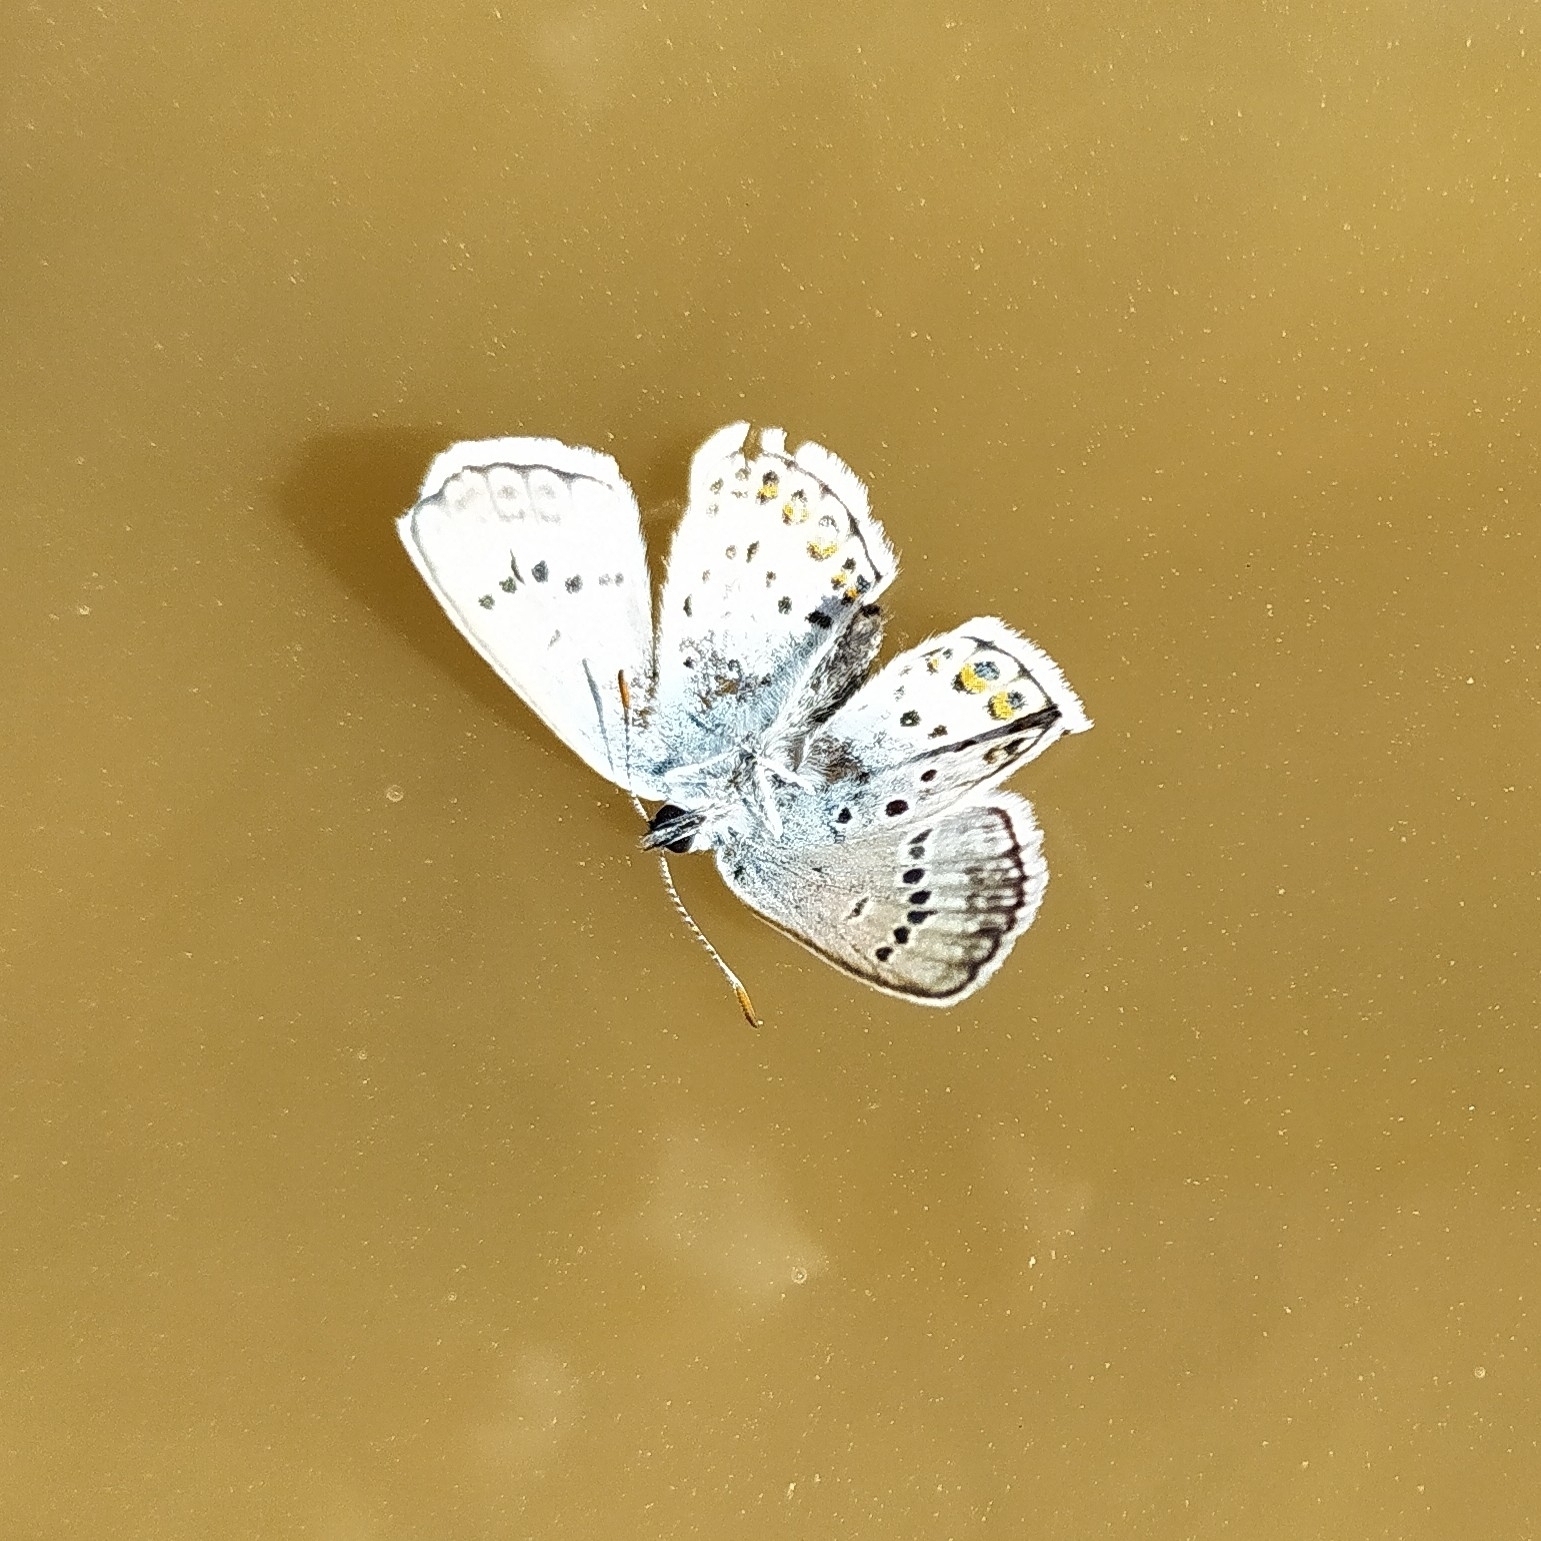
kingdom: Animalia
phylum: Arthropoda
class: Insecta
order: Lepidoptera
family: Lycaenidae
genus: Plebejus
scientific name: Plebejus argus
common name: Silver-studded blue
